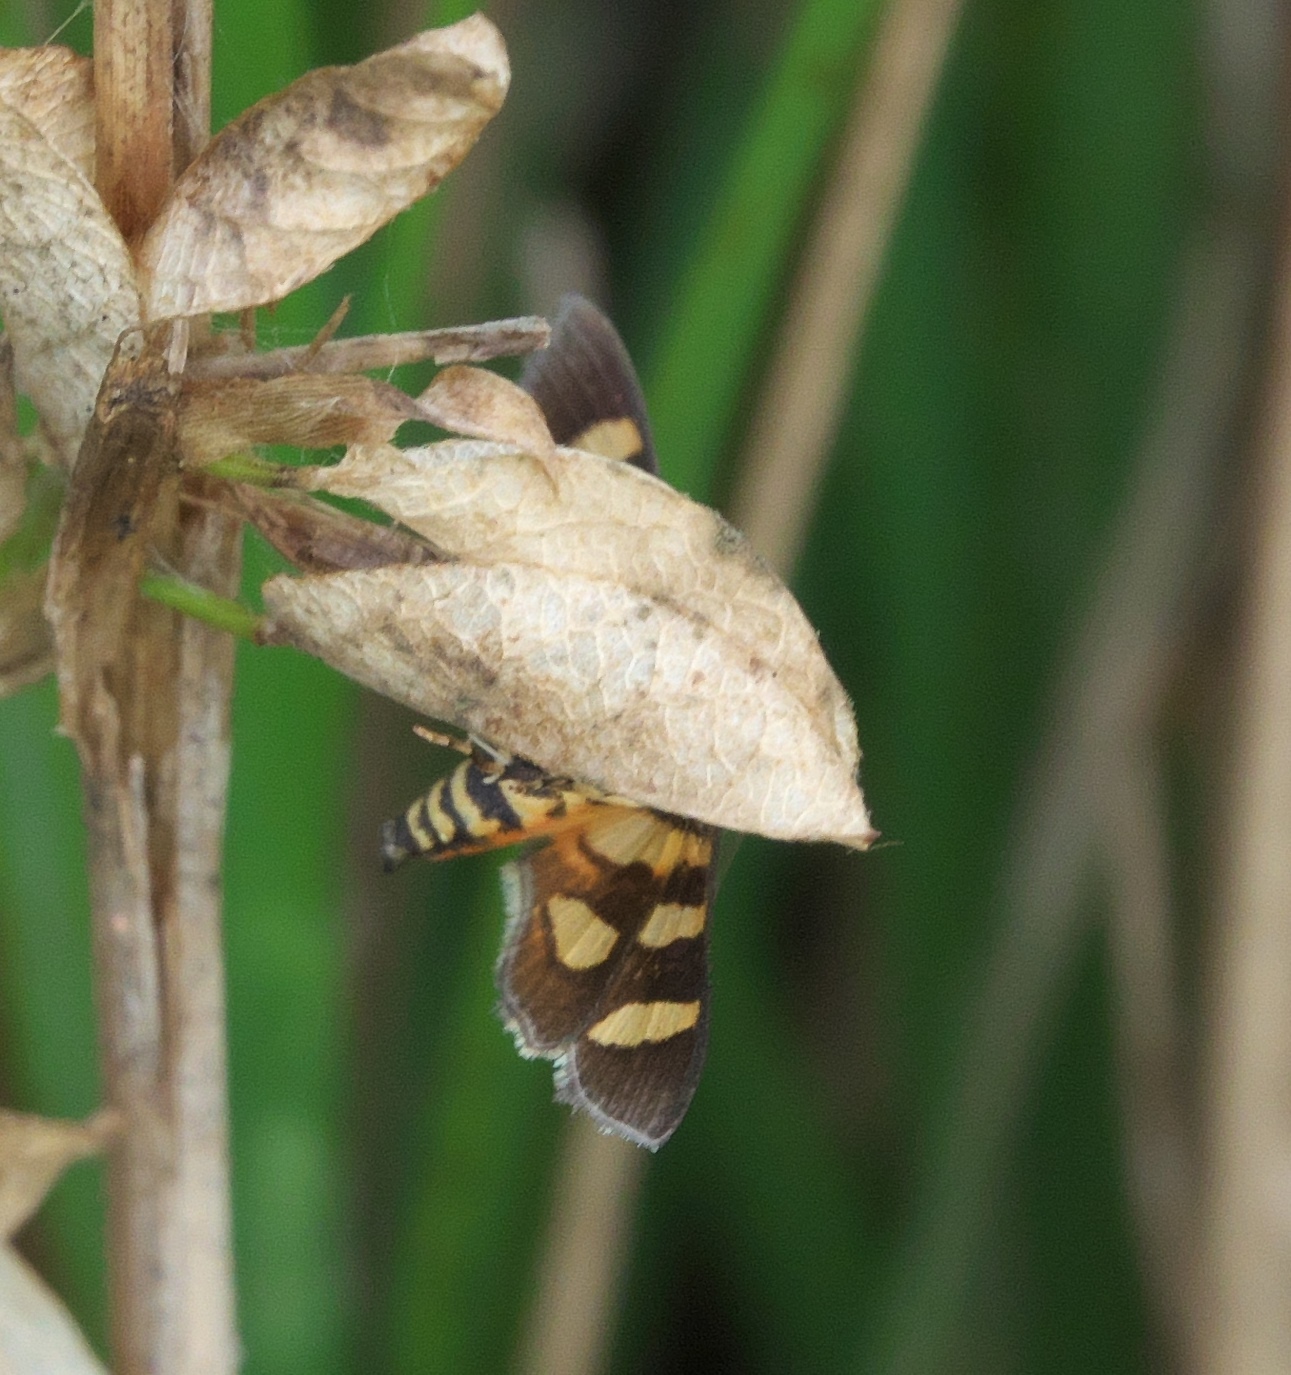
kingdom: Animalia
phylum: Arthropoda
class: Insecta
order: Lepidoptera
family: Crambidae
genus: Syngamia
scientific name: Syngamia florella
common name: Orange-spotted flower moth
